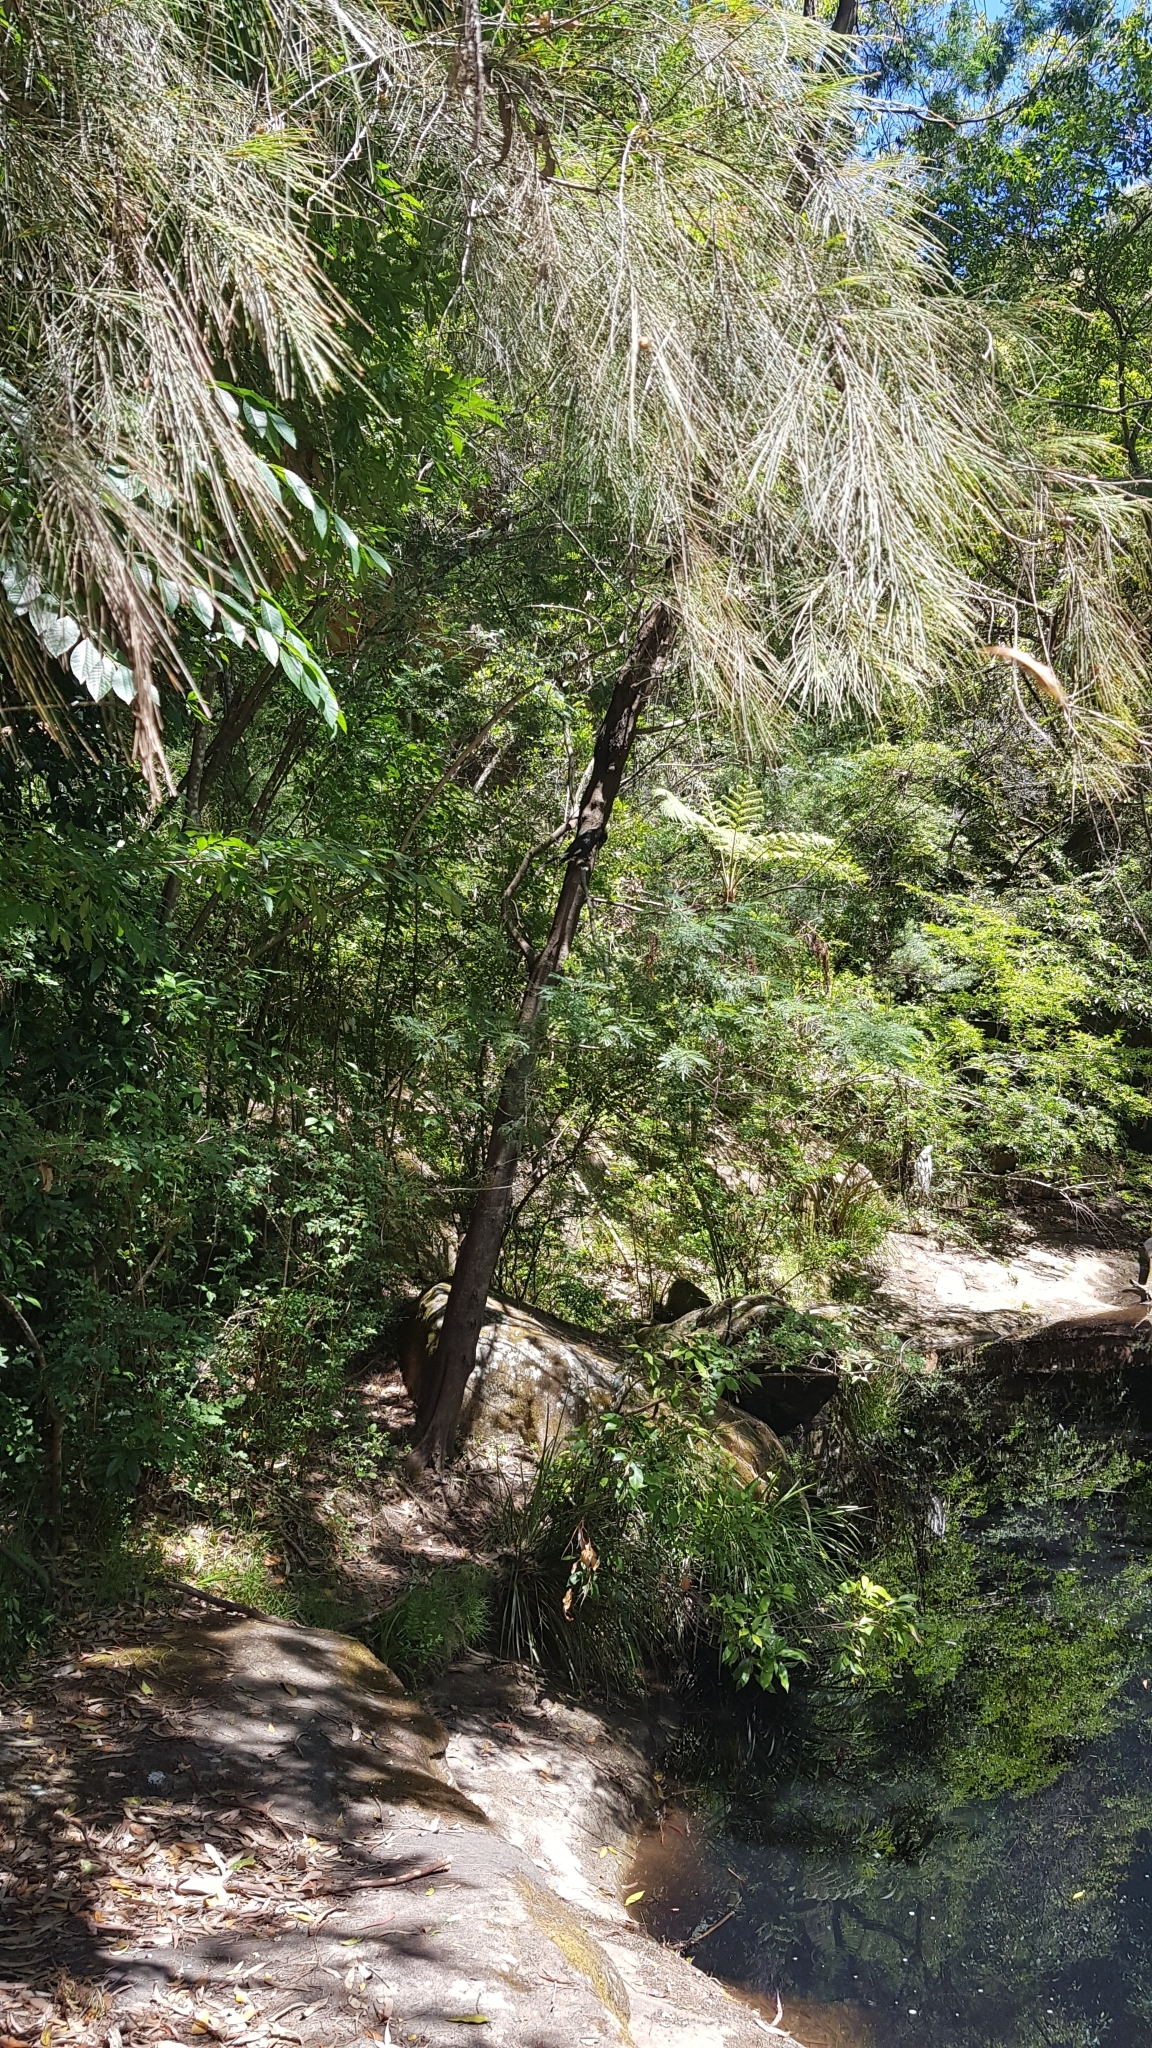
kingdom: Animalia
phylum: Chordata
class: Aves
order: Passeriformes
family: Cracticidae
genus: Strepera
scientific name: Strepera graculina
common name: Pied currawong
